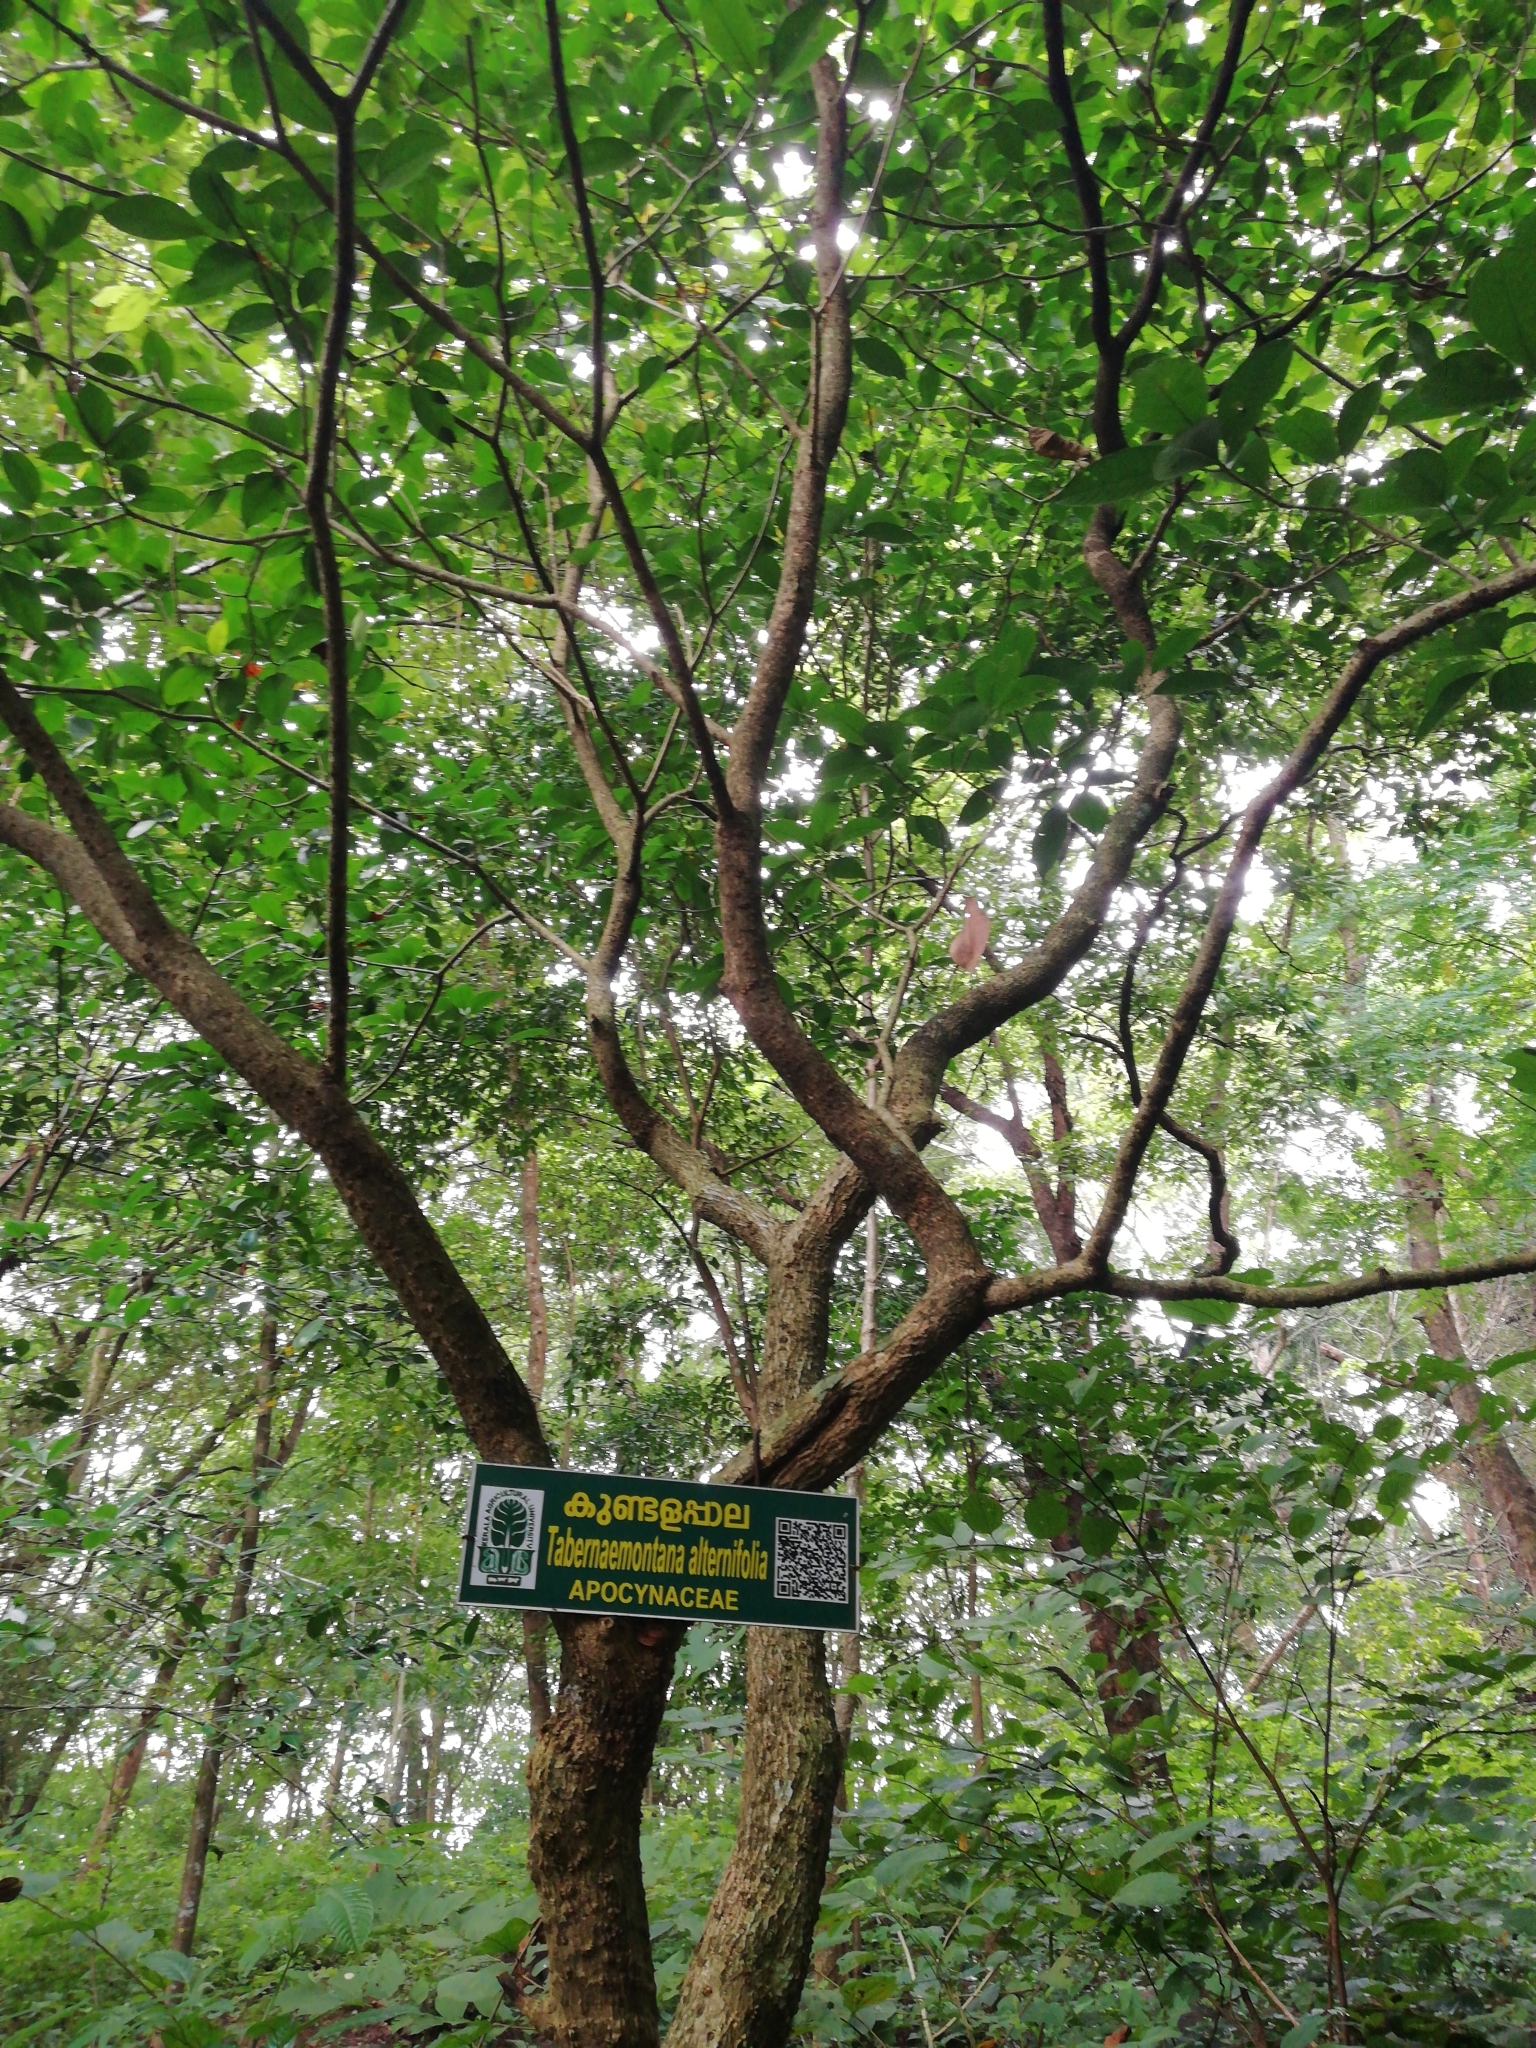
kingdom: Plantae
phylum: Tracheophyta
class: Magnoliopsida
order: Gentianales
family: Apocynaceae
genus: Tabernaemontana
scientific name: Tabernaemontana alternifolia
